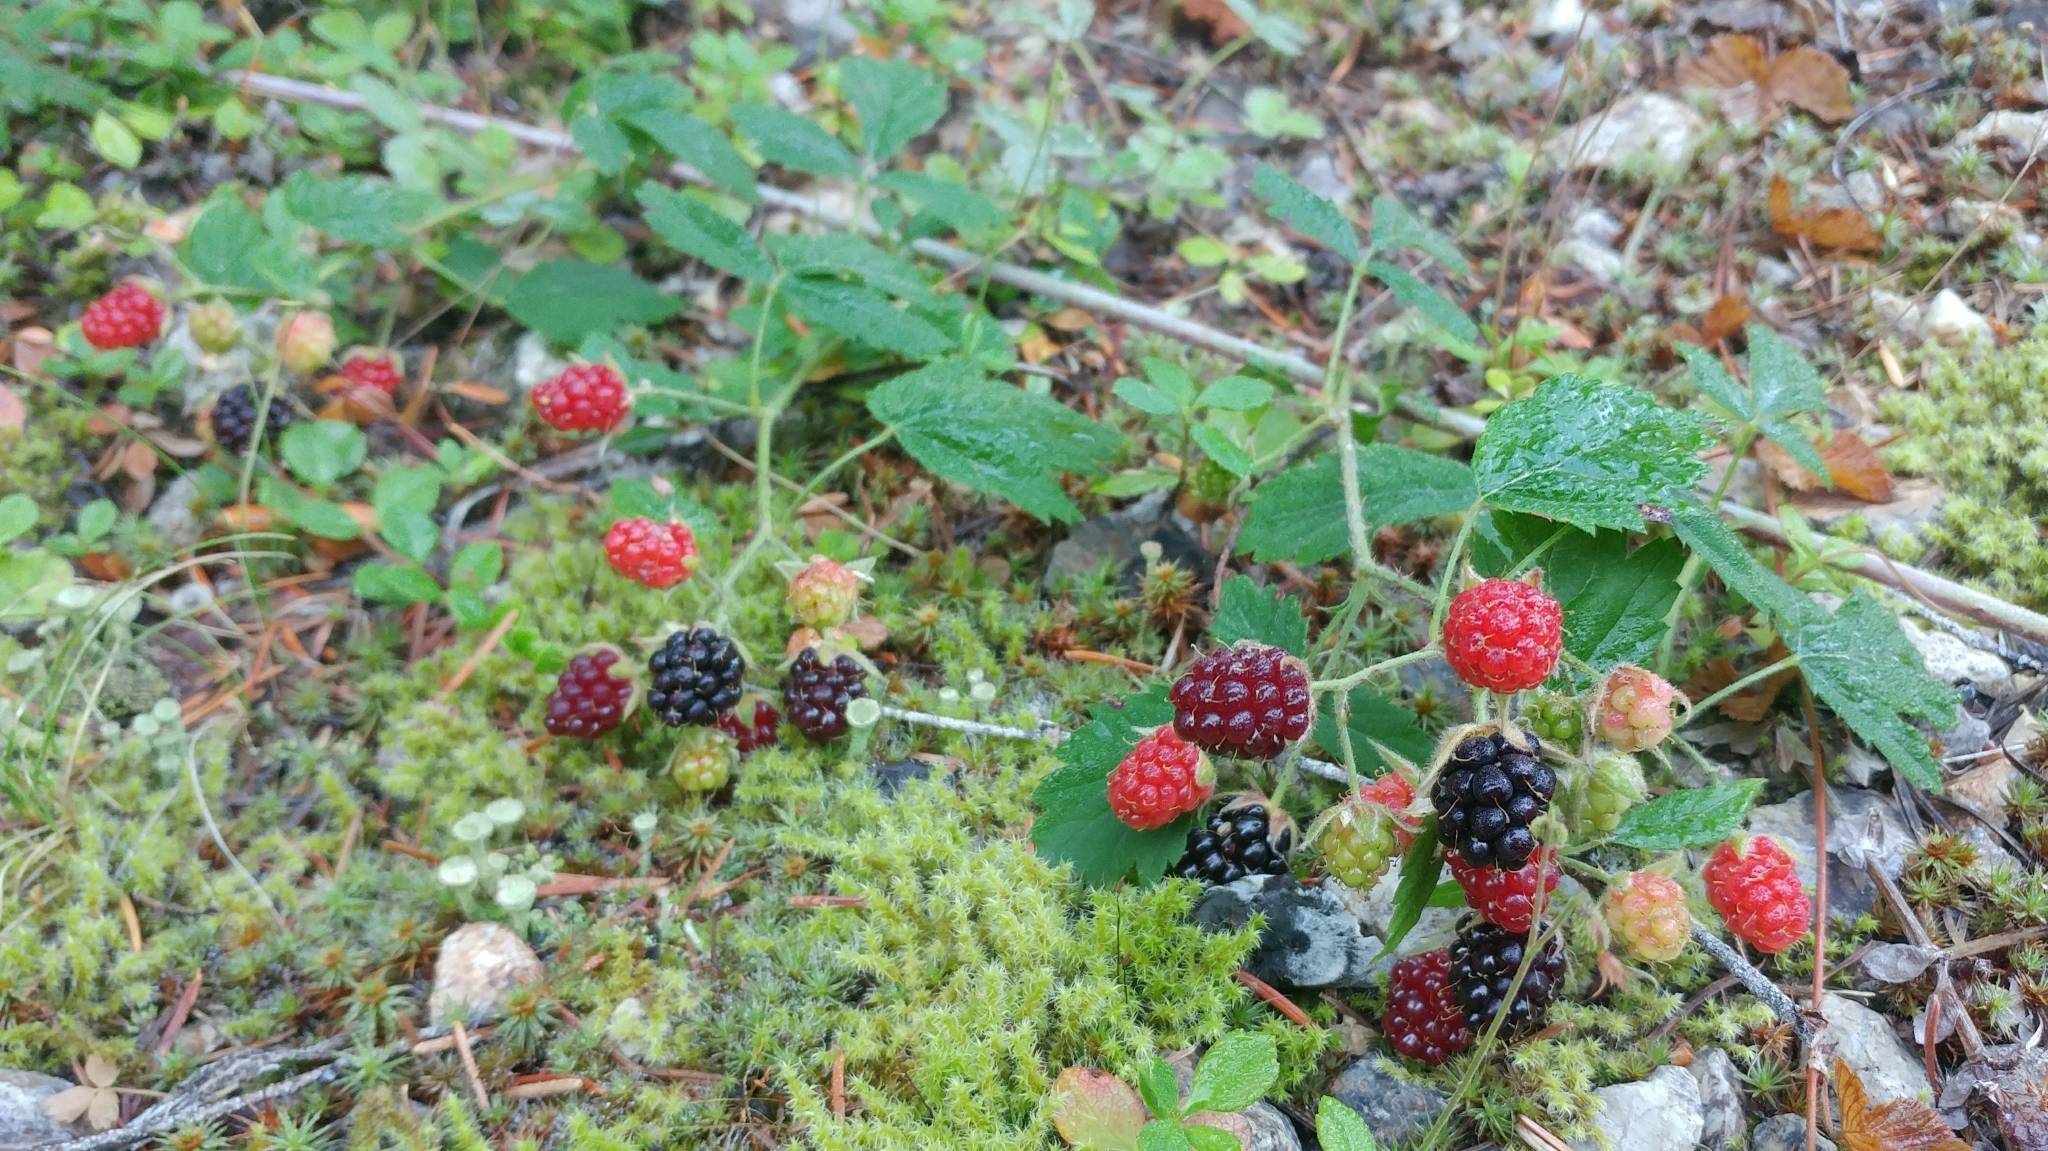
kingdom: Plantae
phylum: Tracheophyta
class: Magnoliopsida
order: Rosales
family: Rosaceae
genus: Rubus
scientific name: Rubus ursinus
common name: Pacific blackberry
